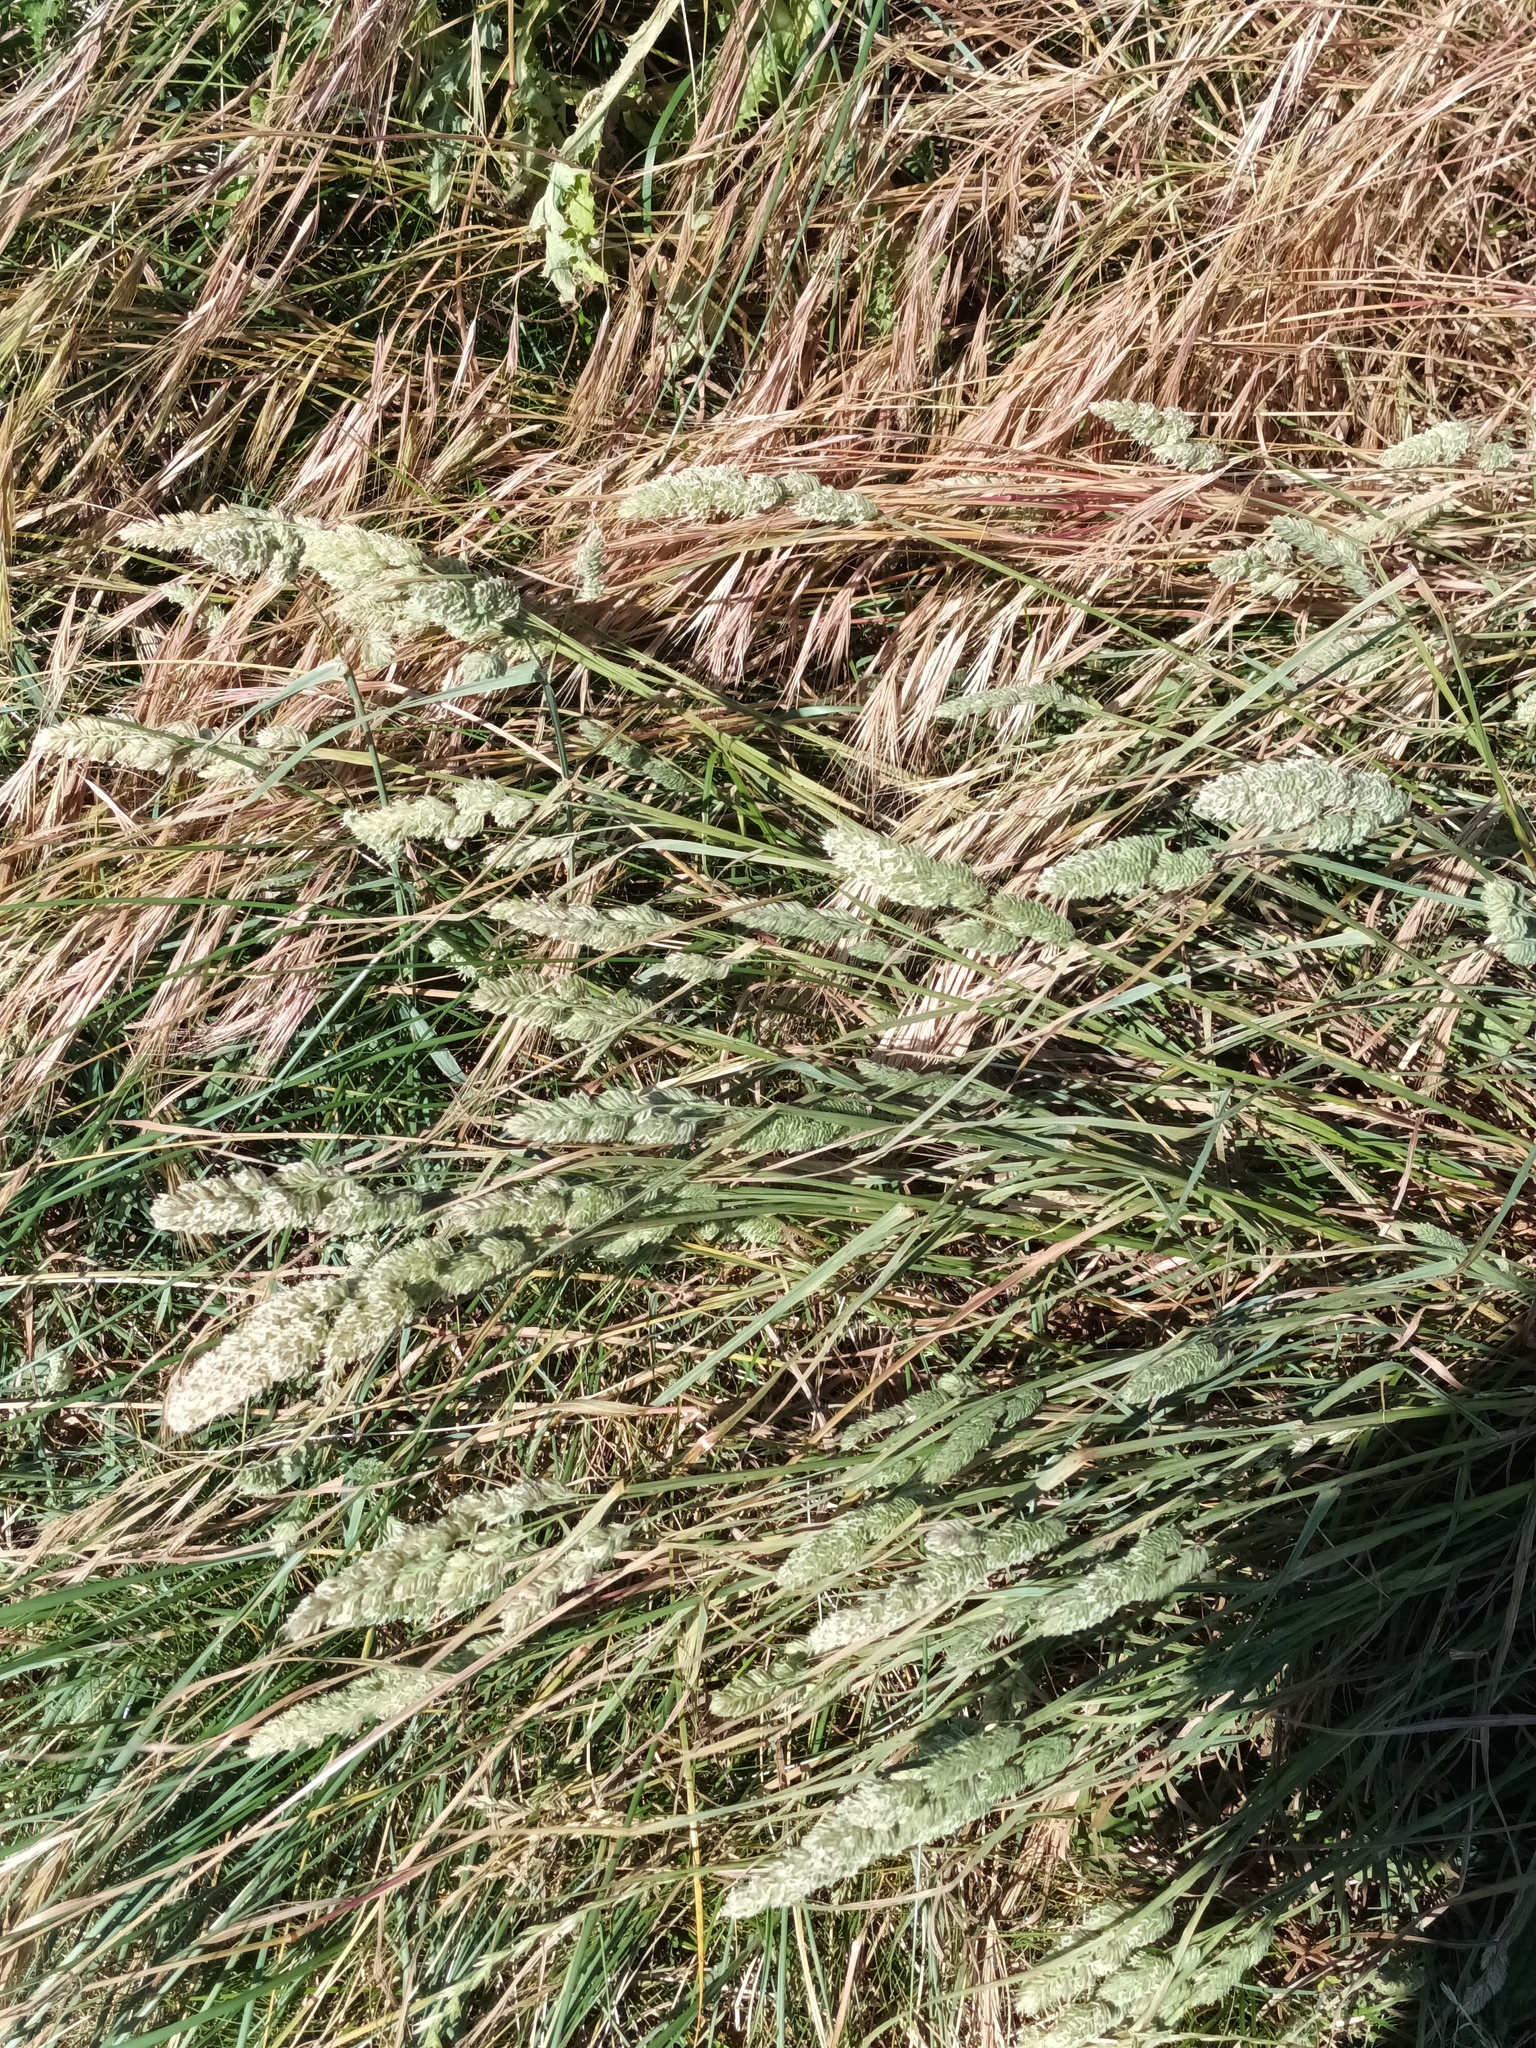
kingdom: Plantae
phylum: Tracheophyta
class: Liliopsida
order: Poales
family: Poaceae
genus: Dactylis
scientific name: Dactylis glomerata
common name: Orchardgrass
